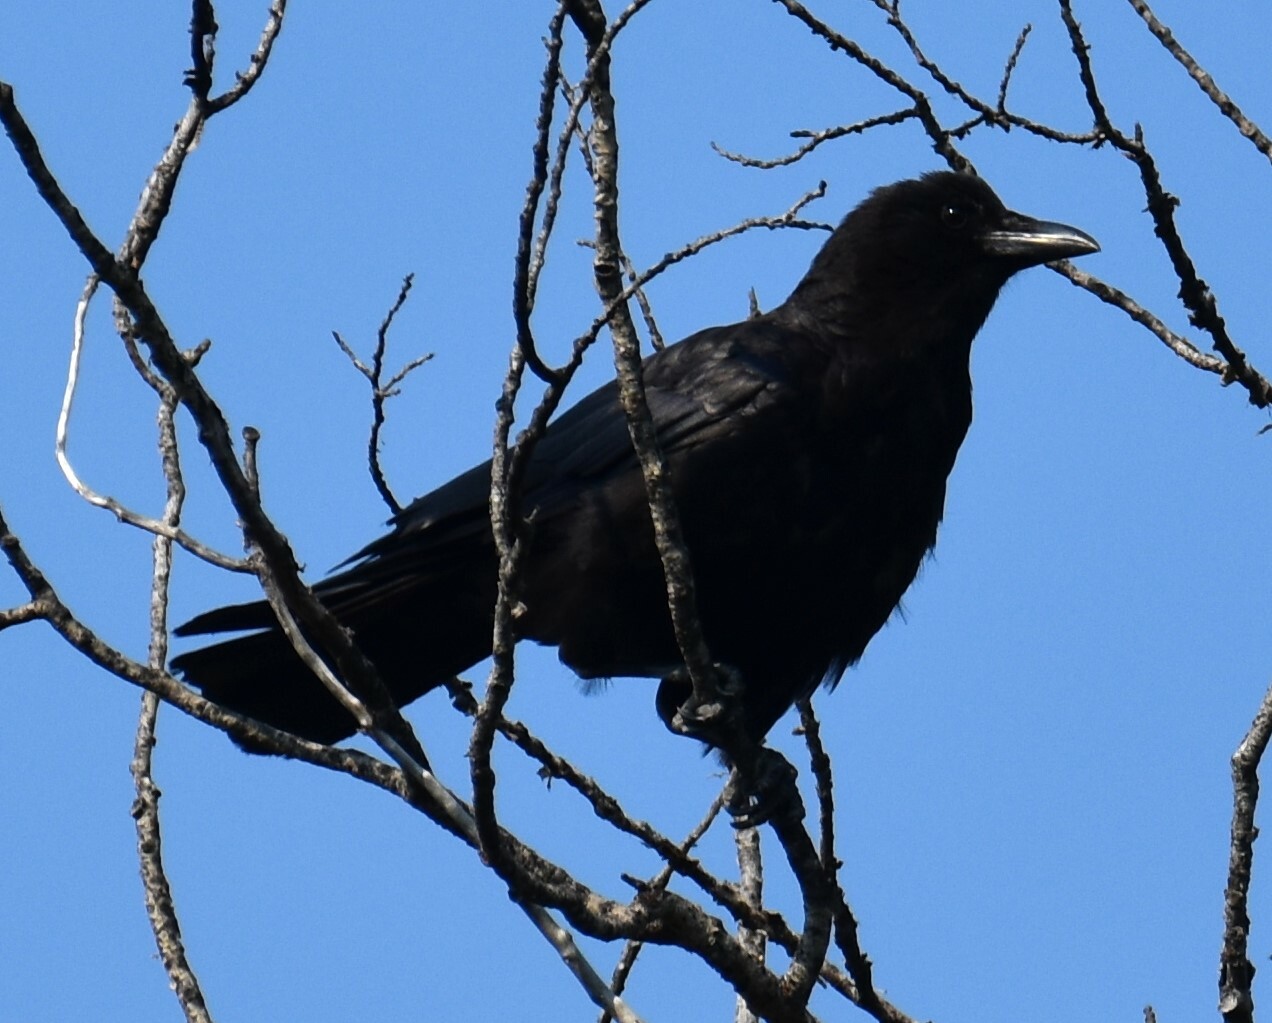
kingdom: Animalia
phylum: Chordata
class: Aves
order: Passeriformes
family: Corvidae
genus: Corvus
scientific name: Corvus brachyrhynchos
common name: American crow
